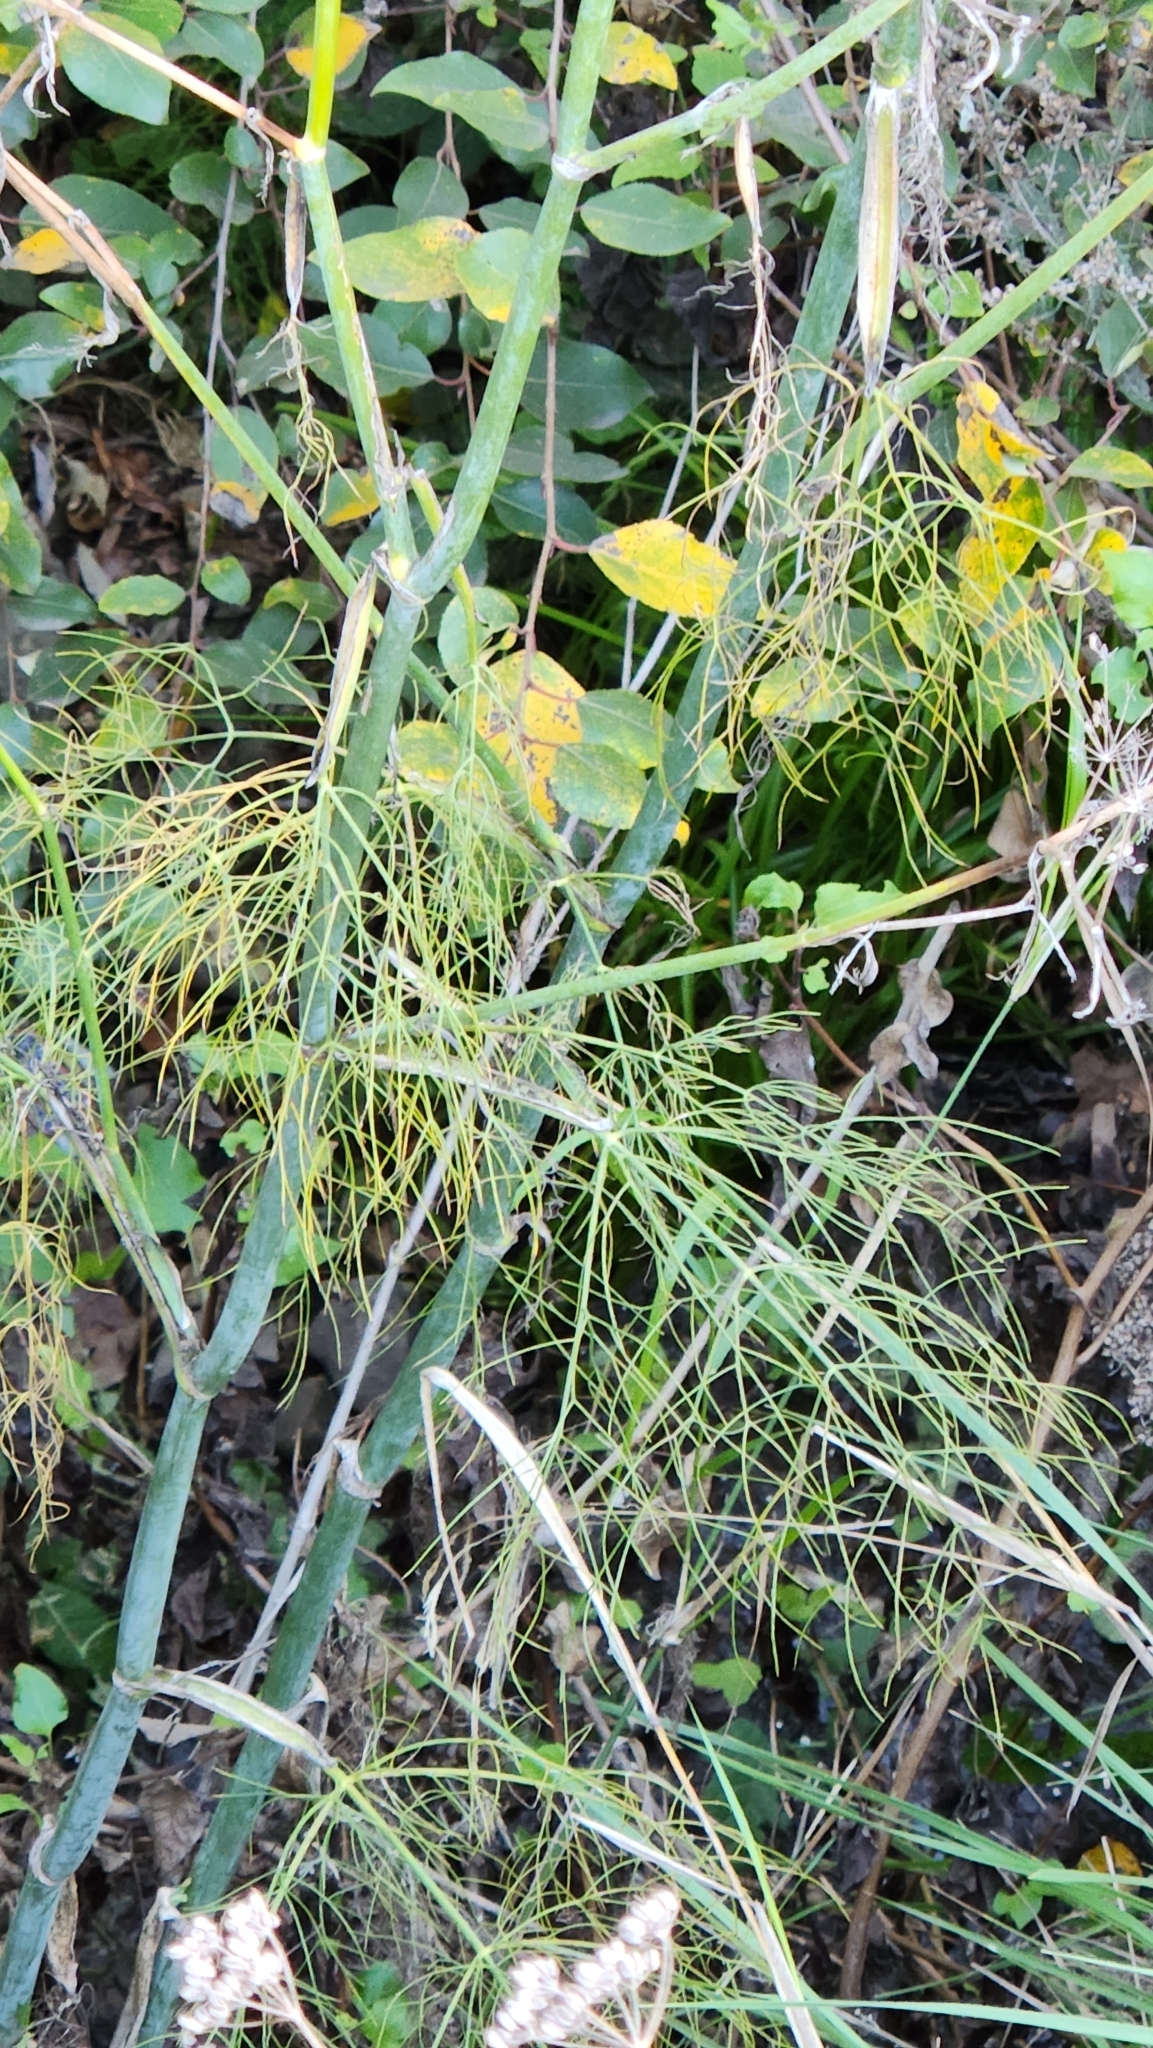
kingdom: Plantae
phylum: Tracheophyta
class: Magnoliopsida
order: Apiales
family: Apiaceae
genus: Foeniculum
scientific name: Foeniculum vulgare
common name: Fennel
